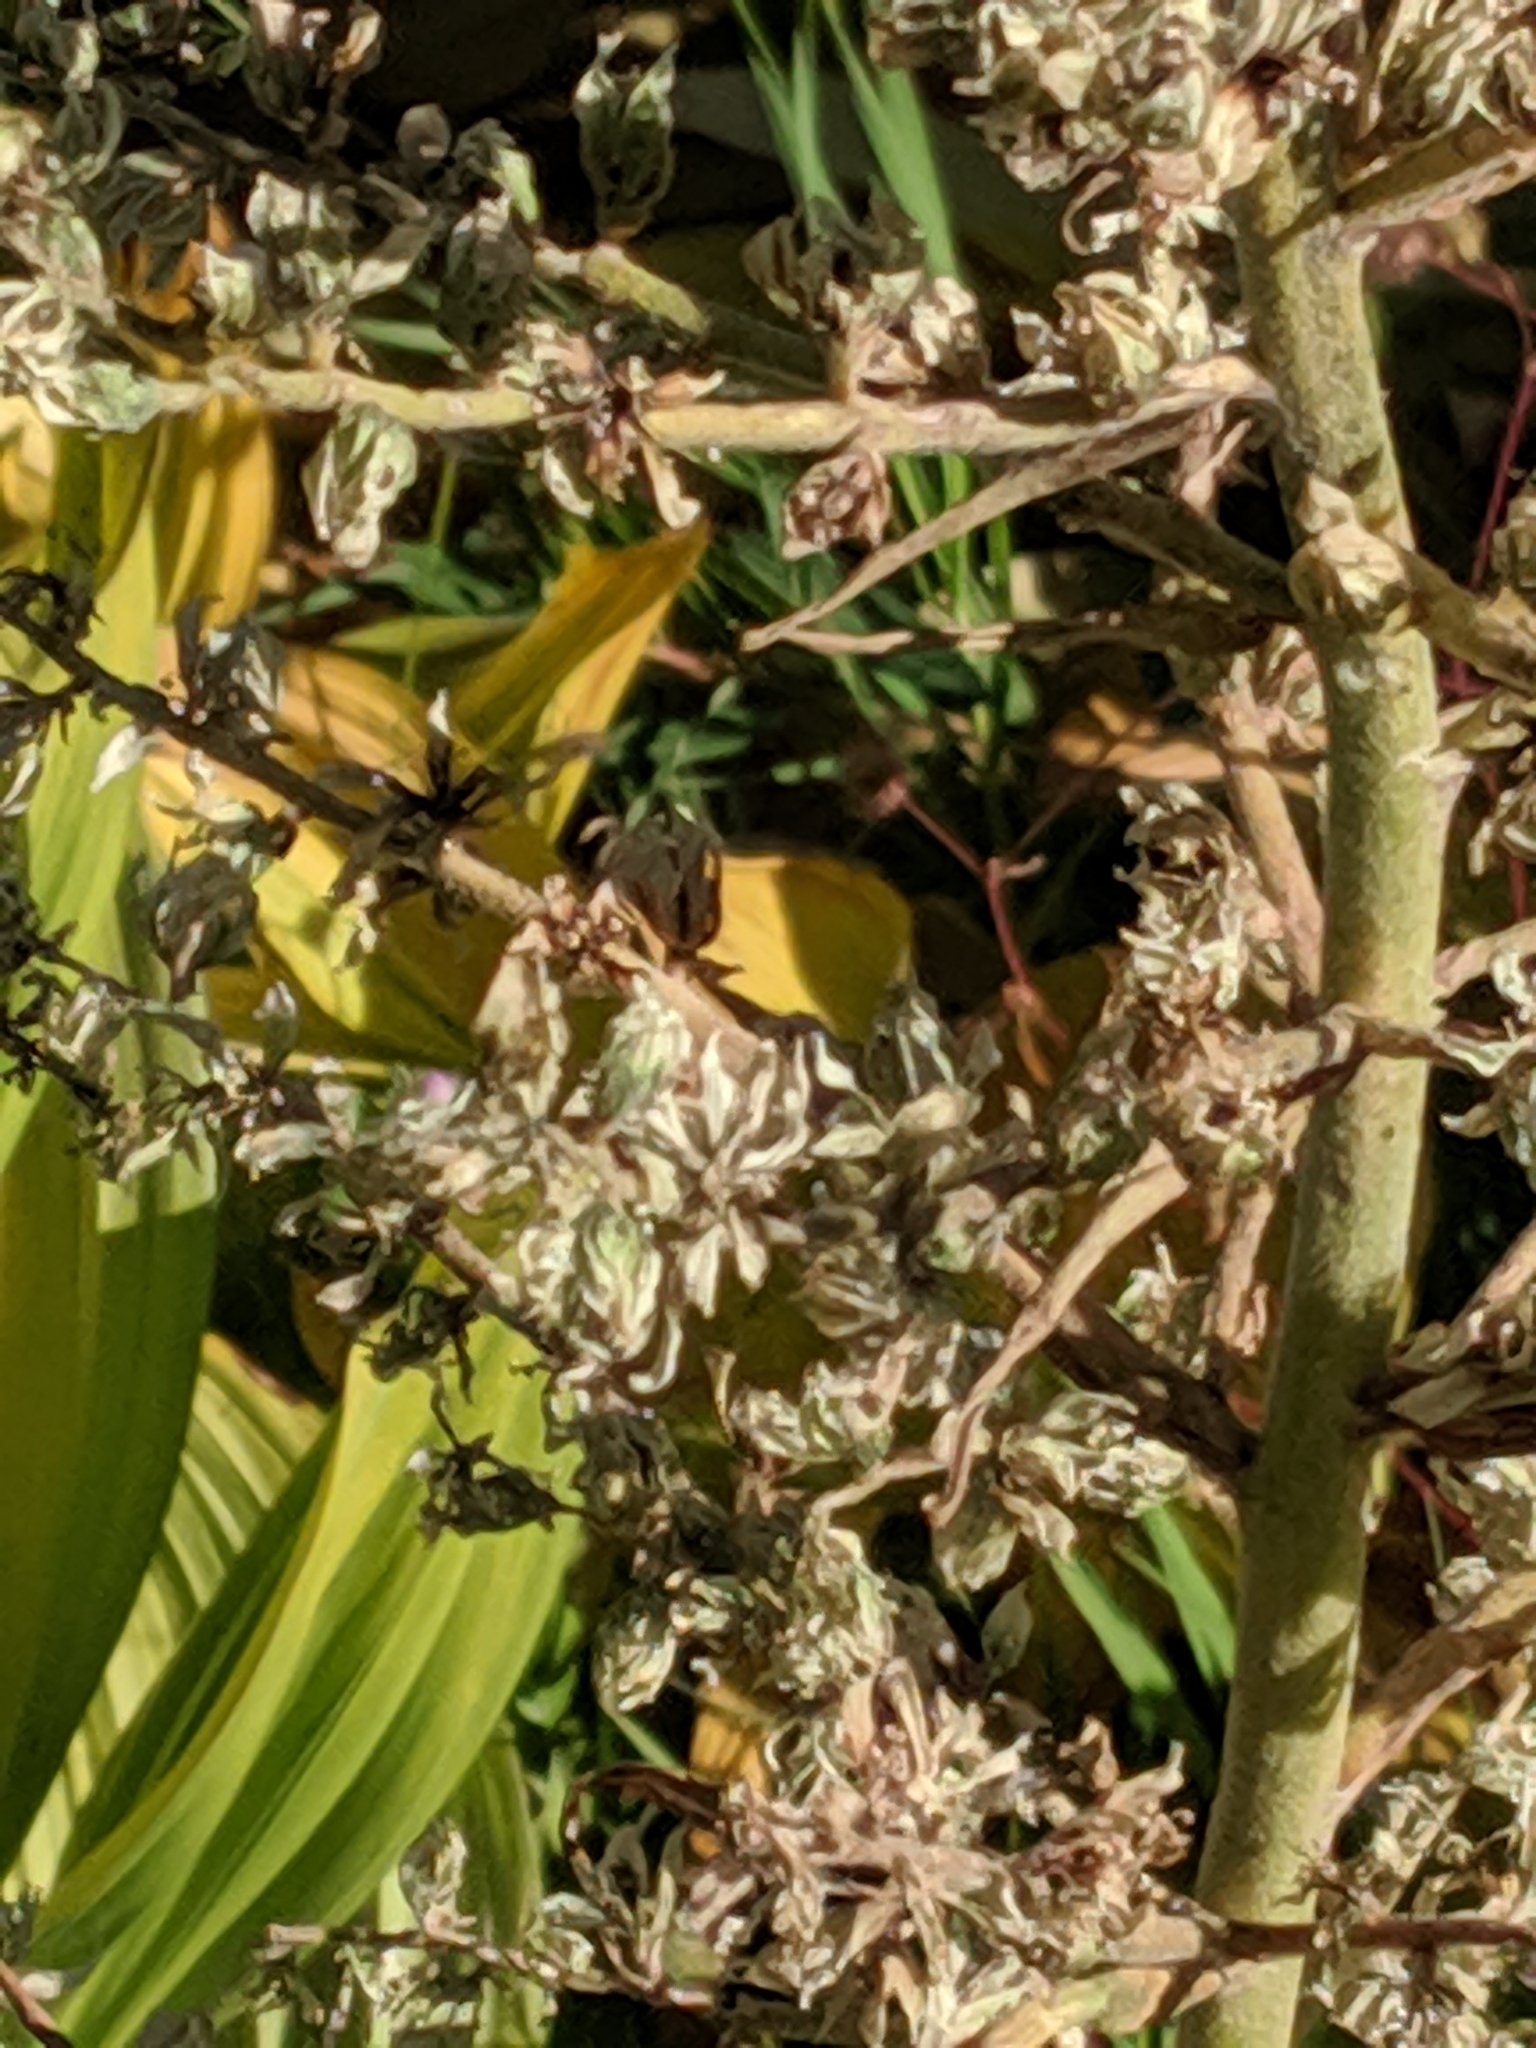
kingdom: Plantae
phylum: Tracheophyta
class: Liliopsida
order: Liliales
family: Melanthiaceae
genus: Veratrum
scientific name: Veratrum californicum
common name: California veratrum
